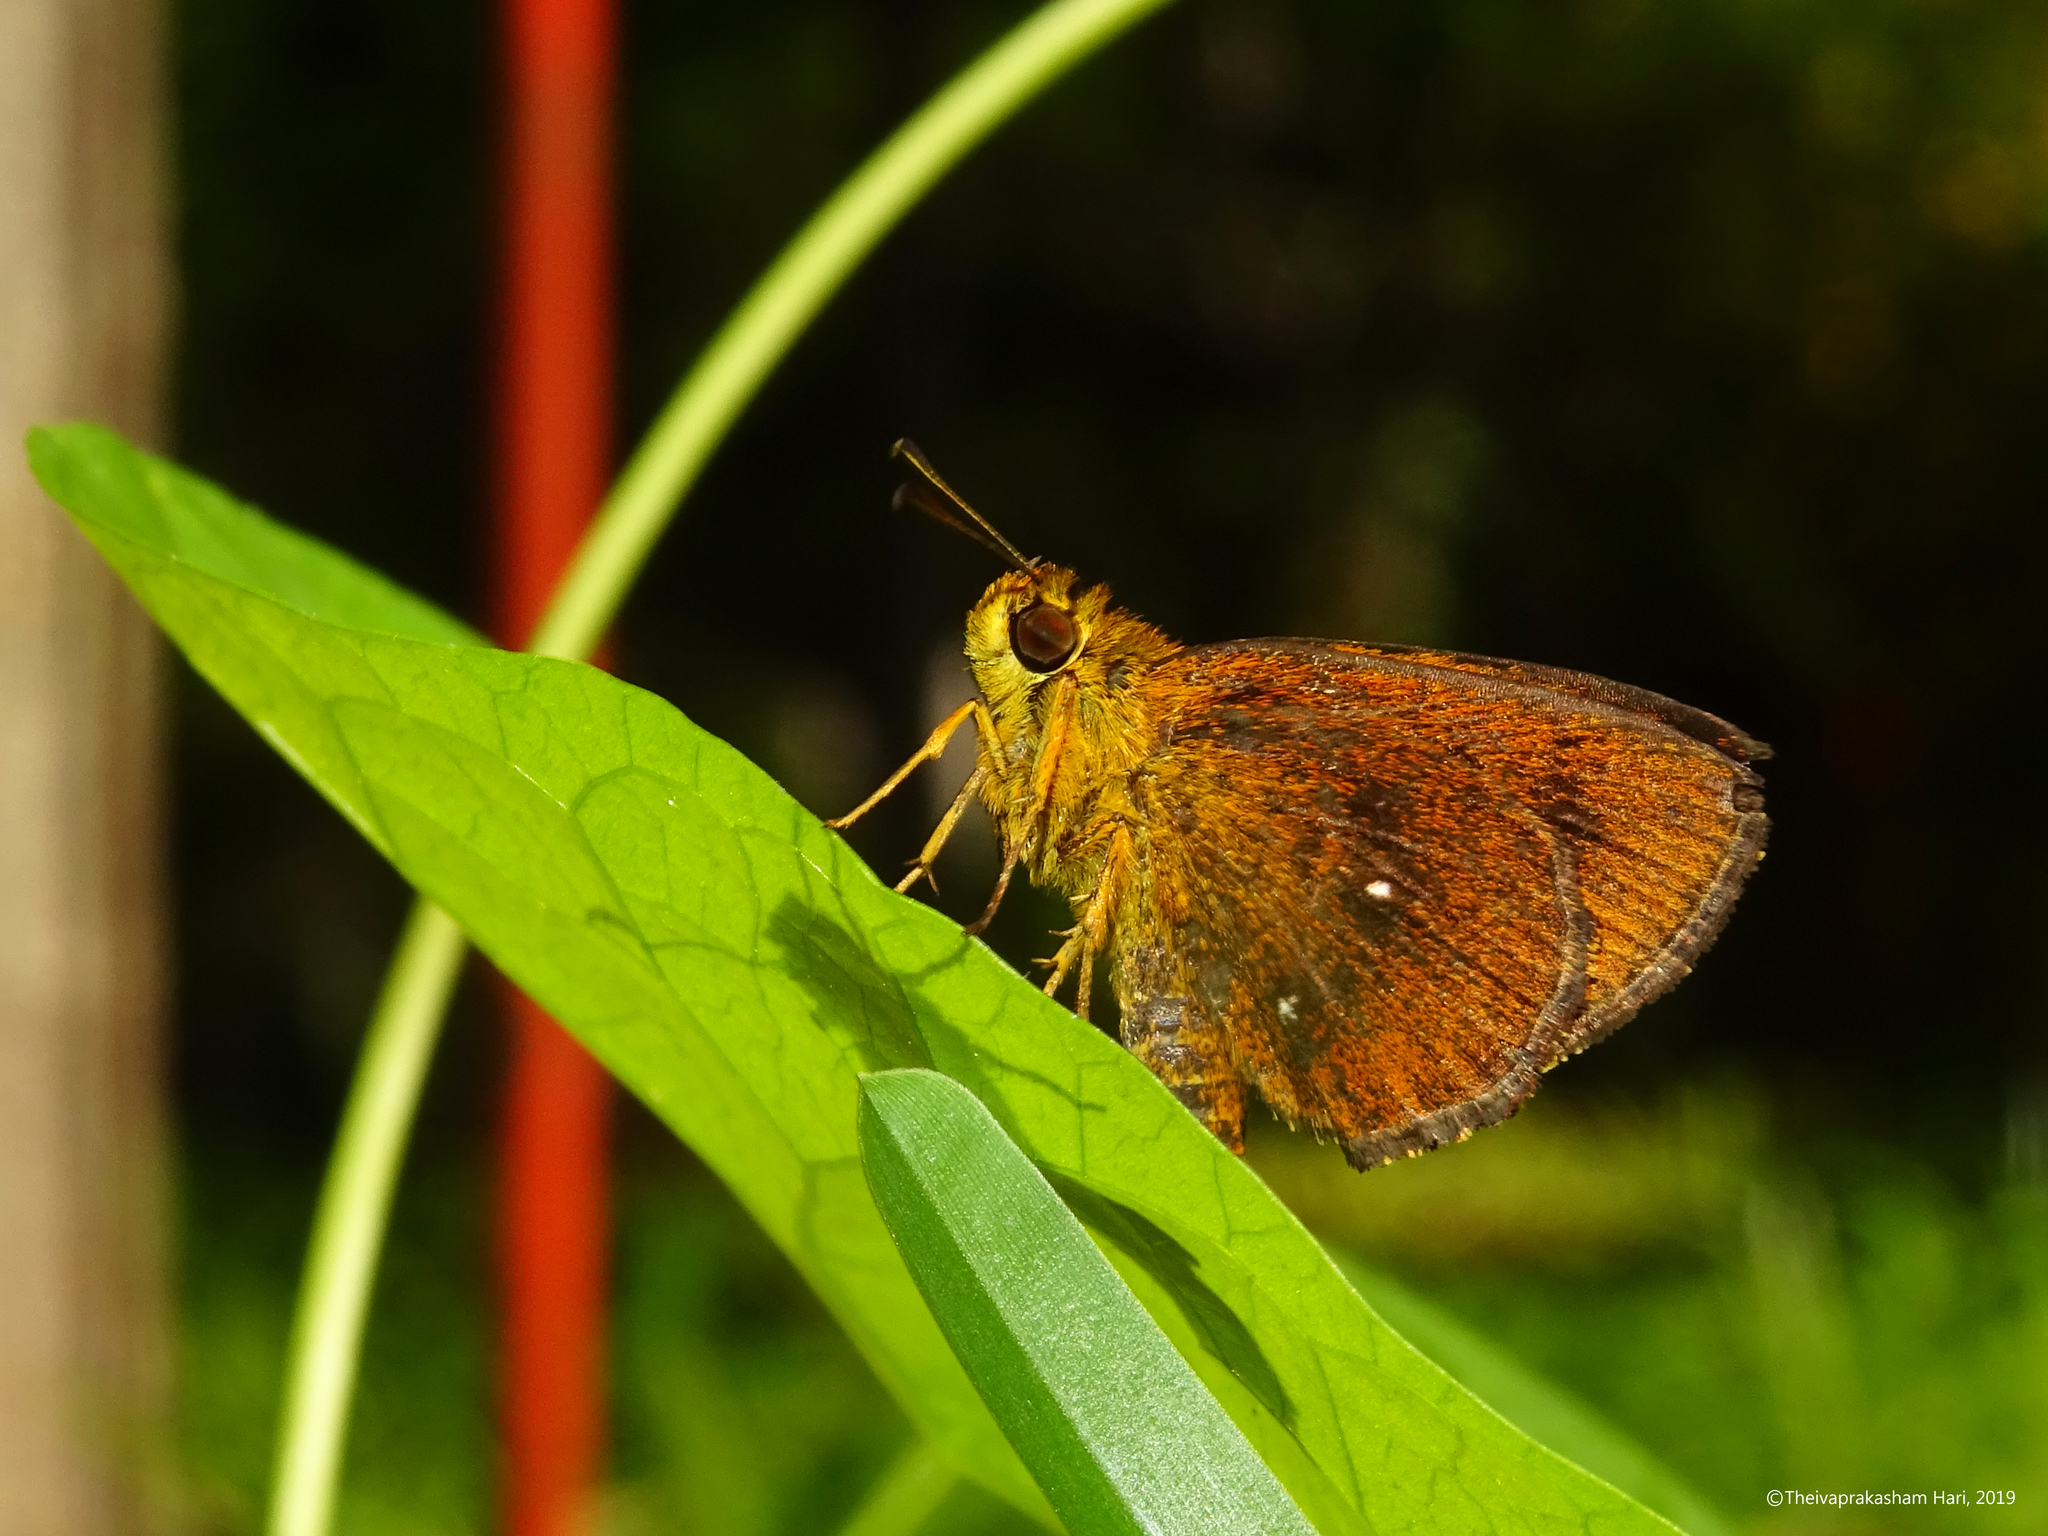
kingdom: Animalia
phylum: Arthropoda
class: Insecta
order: Lepidoptera
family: Hesperiidae
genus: Iambrix
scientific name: Iambrix salsala
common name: Chestnut bob
